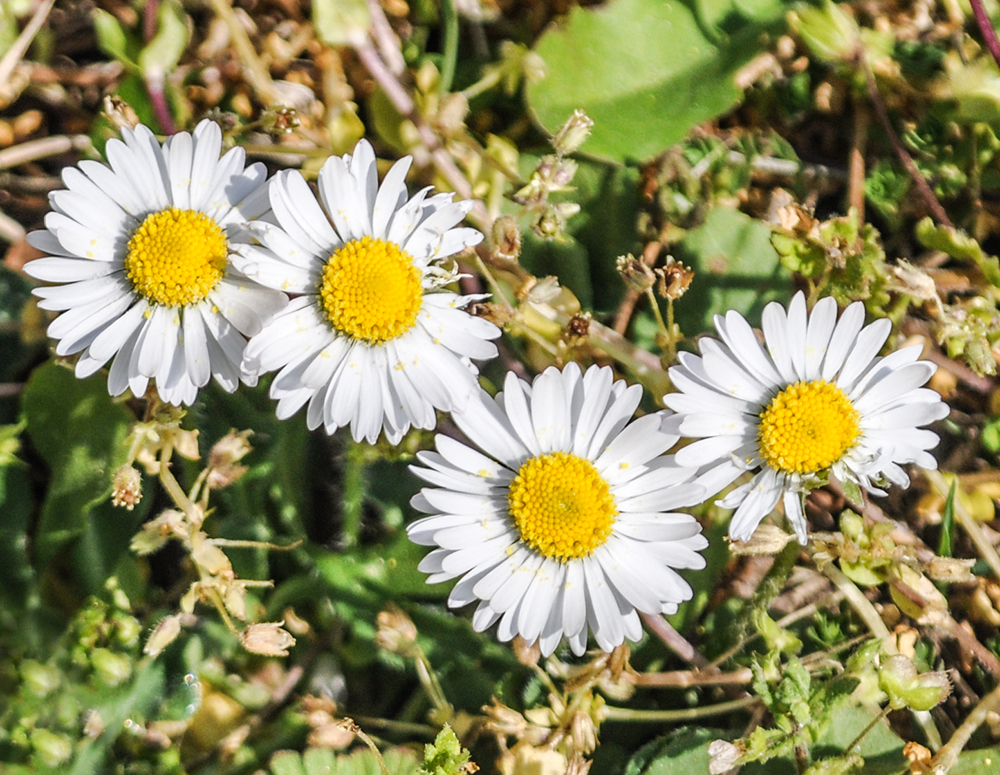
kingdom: Plantae
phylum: Tracheophyta
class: Magnoliopsida
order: Asterales
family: Asteraceae
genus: Bellis
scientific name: Bellis perennis
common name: Lawndaisy
